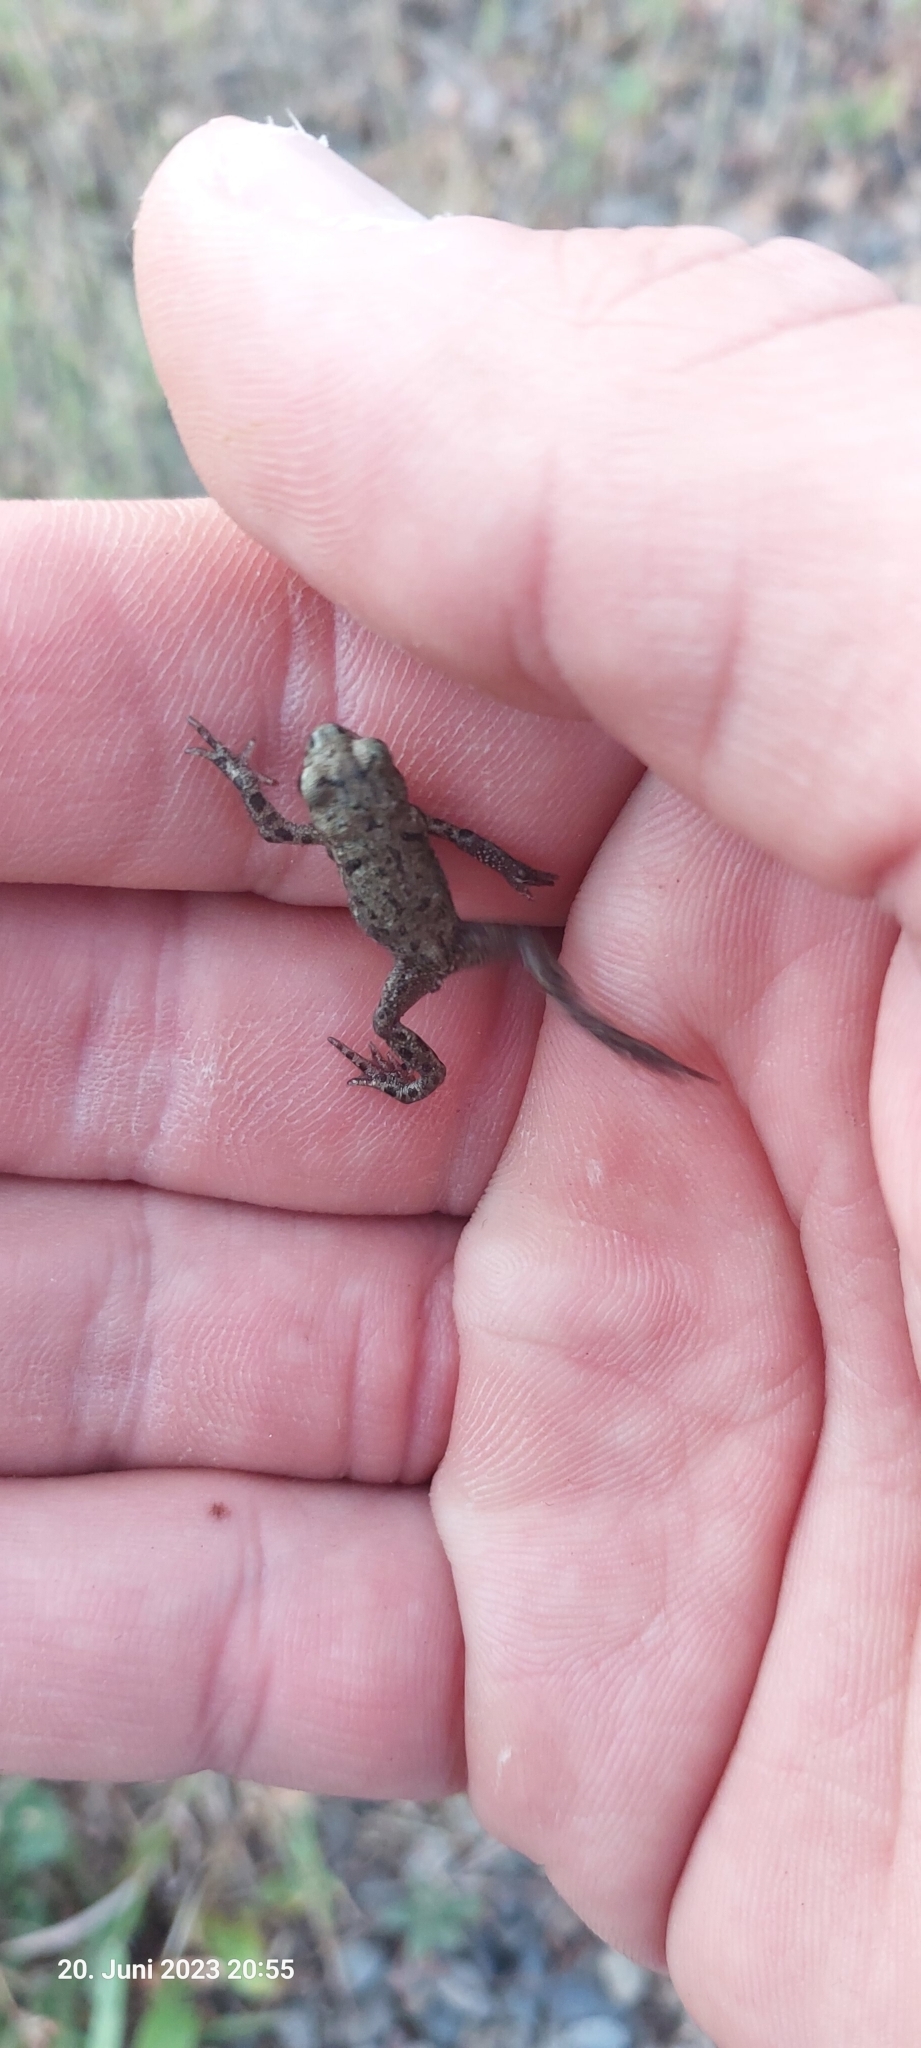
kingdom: Animalia
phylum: Chordata
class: Amphibia
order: Anura
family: Bufonidae
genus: Bufo
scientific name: Bufo bufo
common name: Common toad
